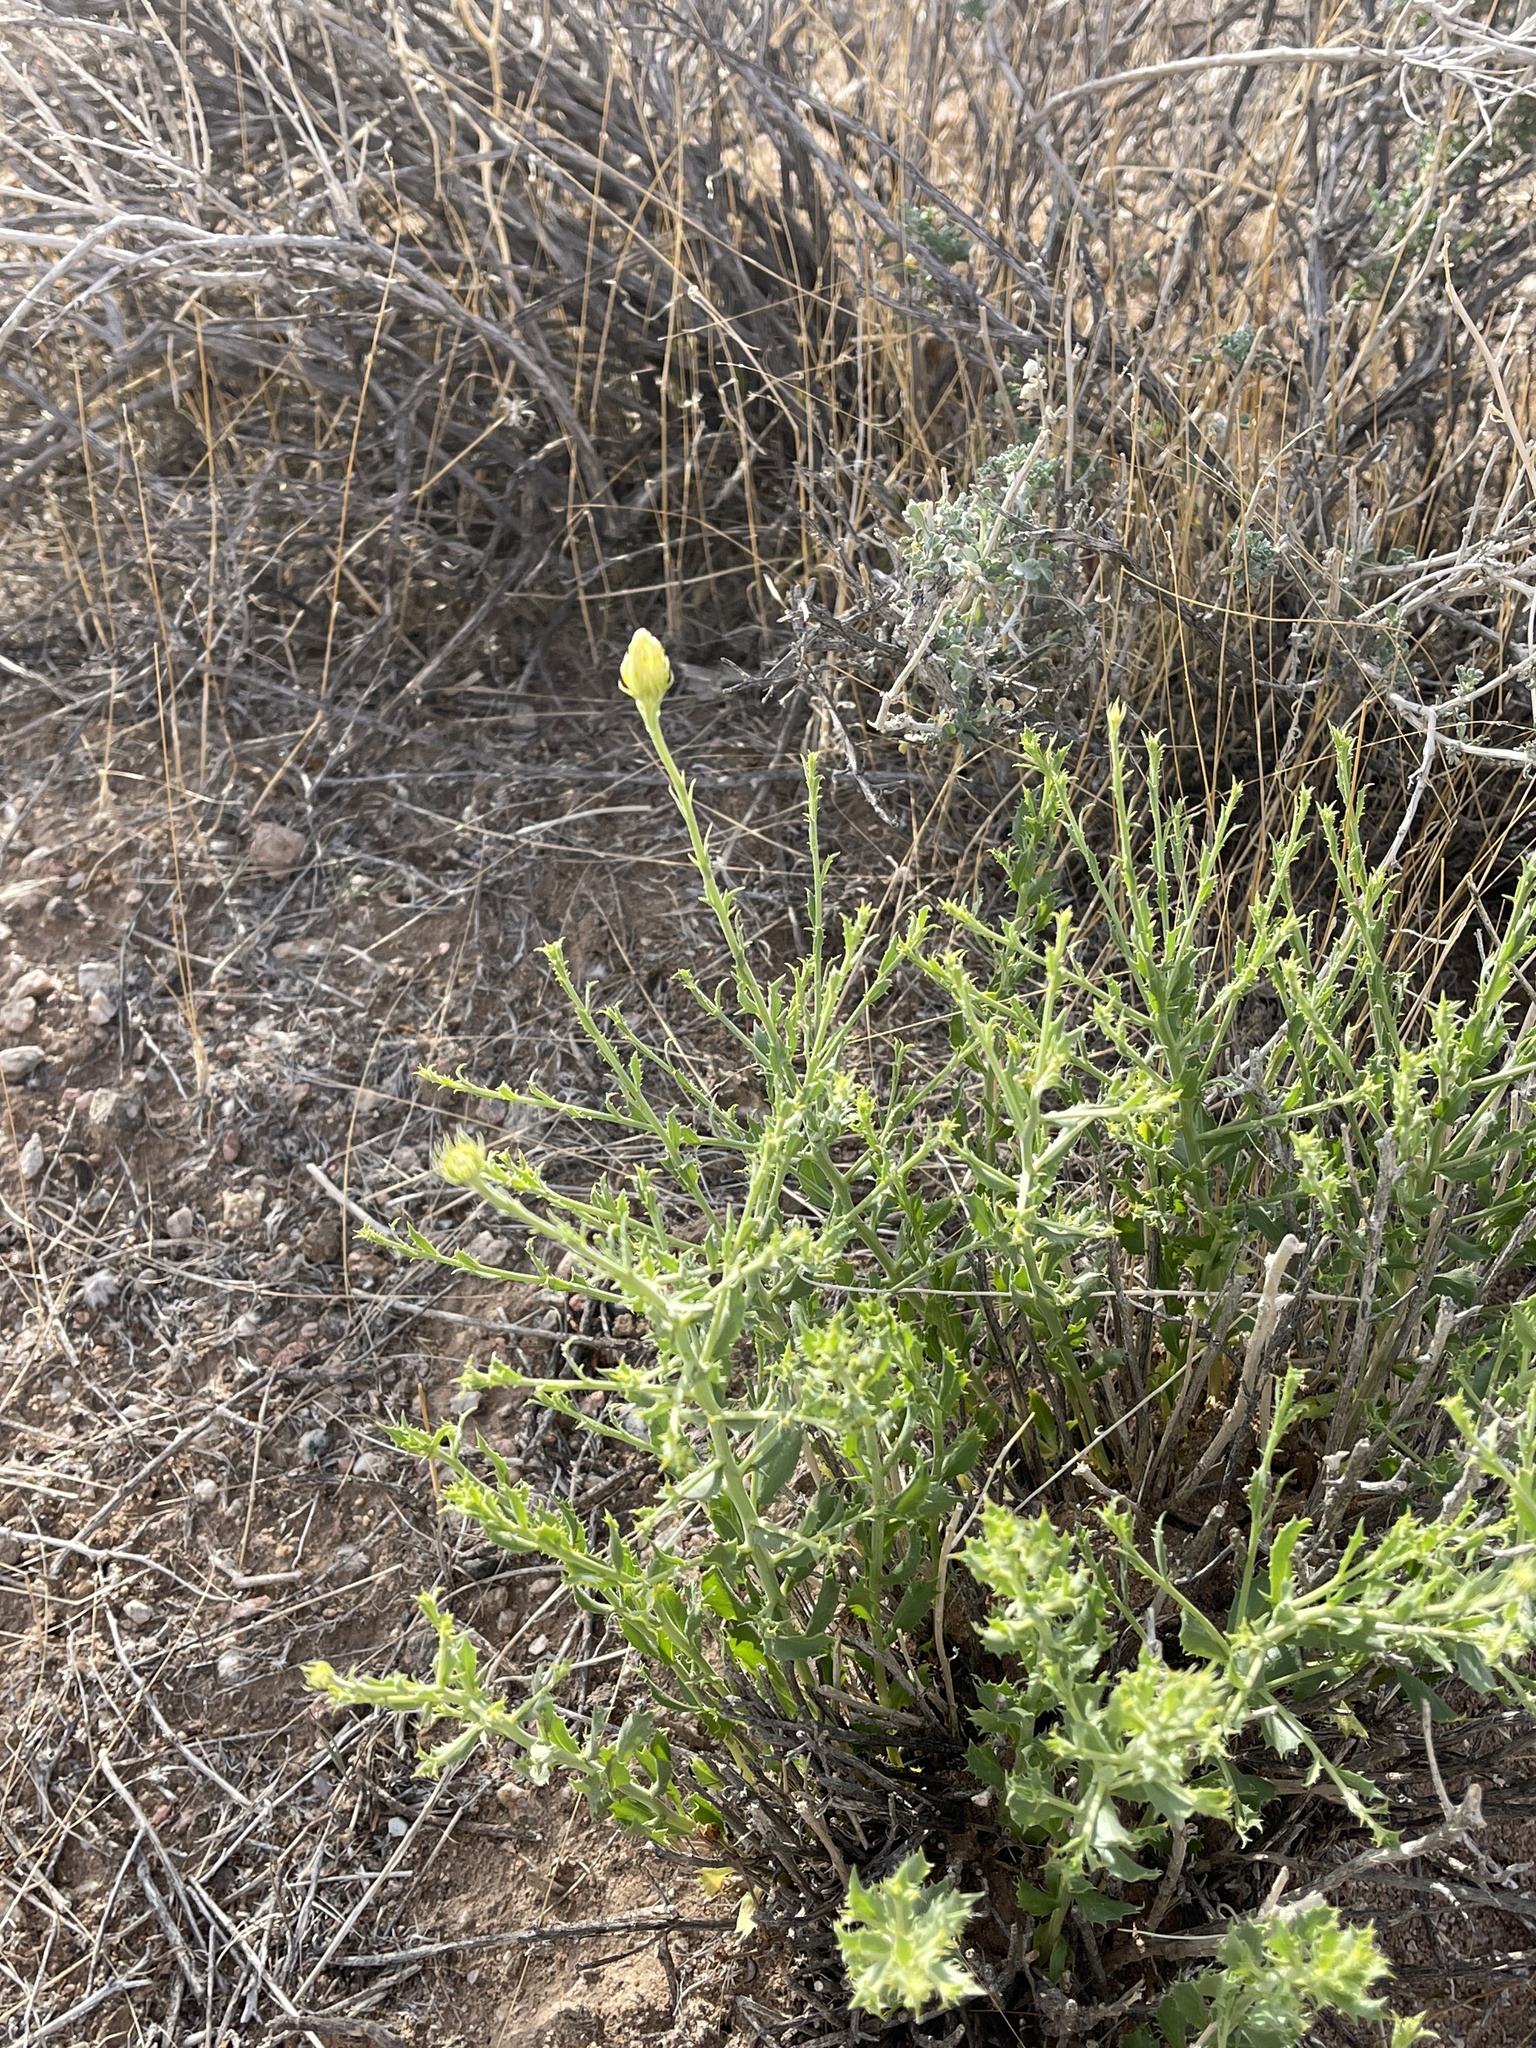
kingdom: Plantae
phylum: Tracheophyta
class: Magnoliopsida
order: Asterales
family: Asteraceae
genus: Xanthisma
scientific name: Xanthisma spinulosum
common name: Spiny goldenweed
